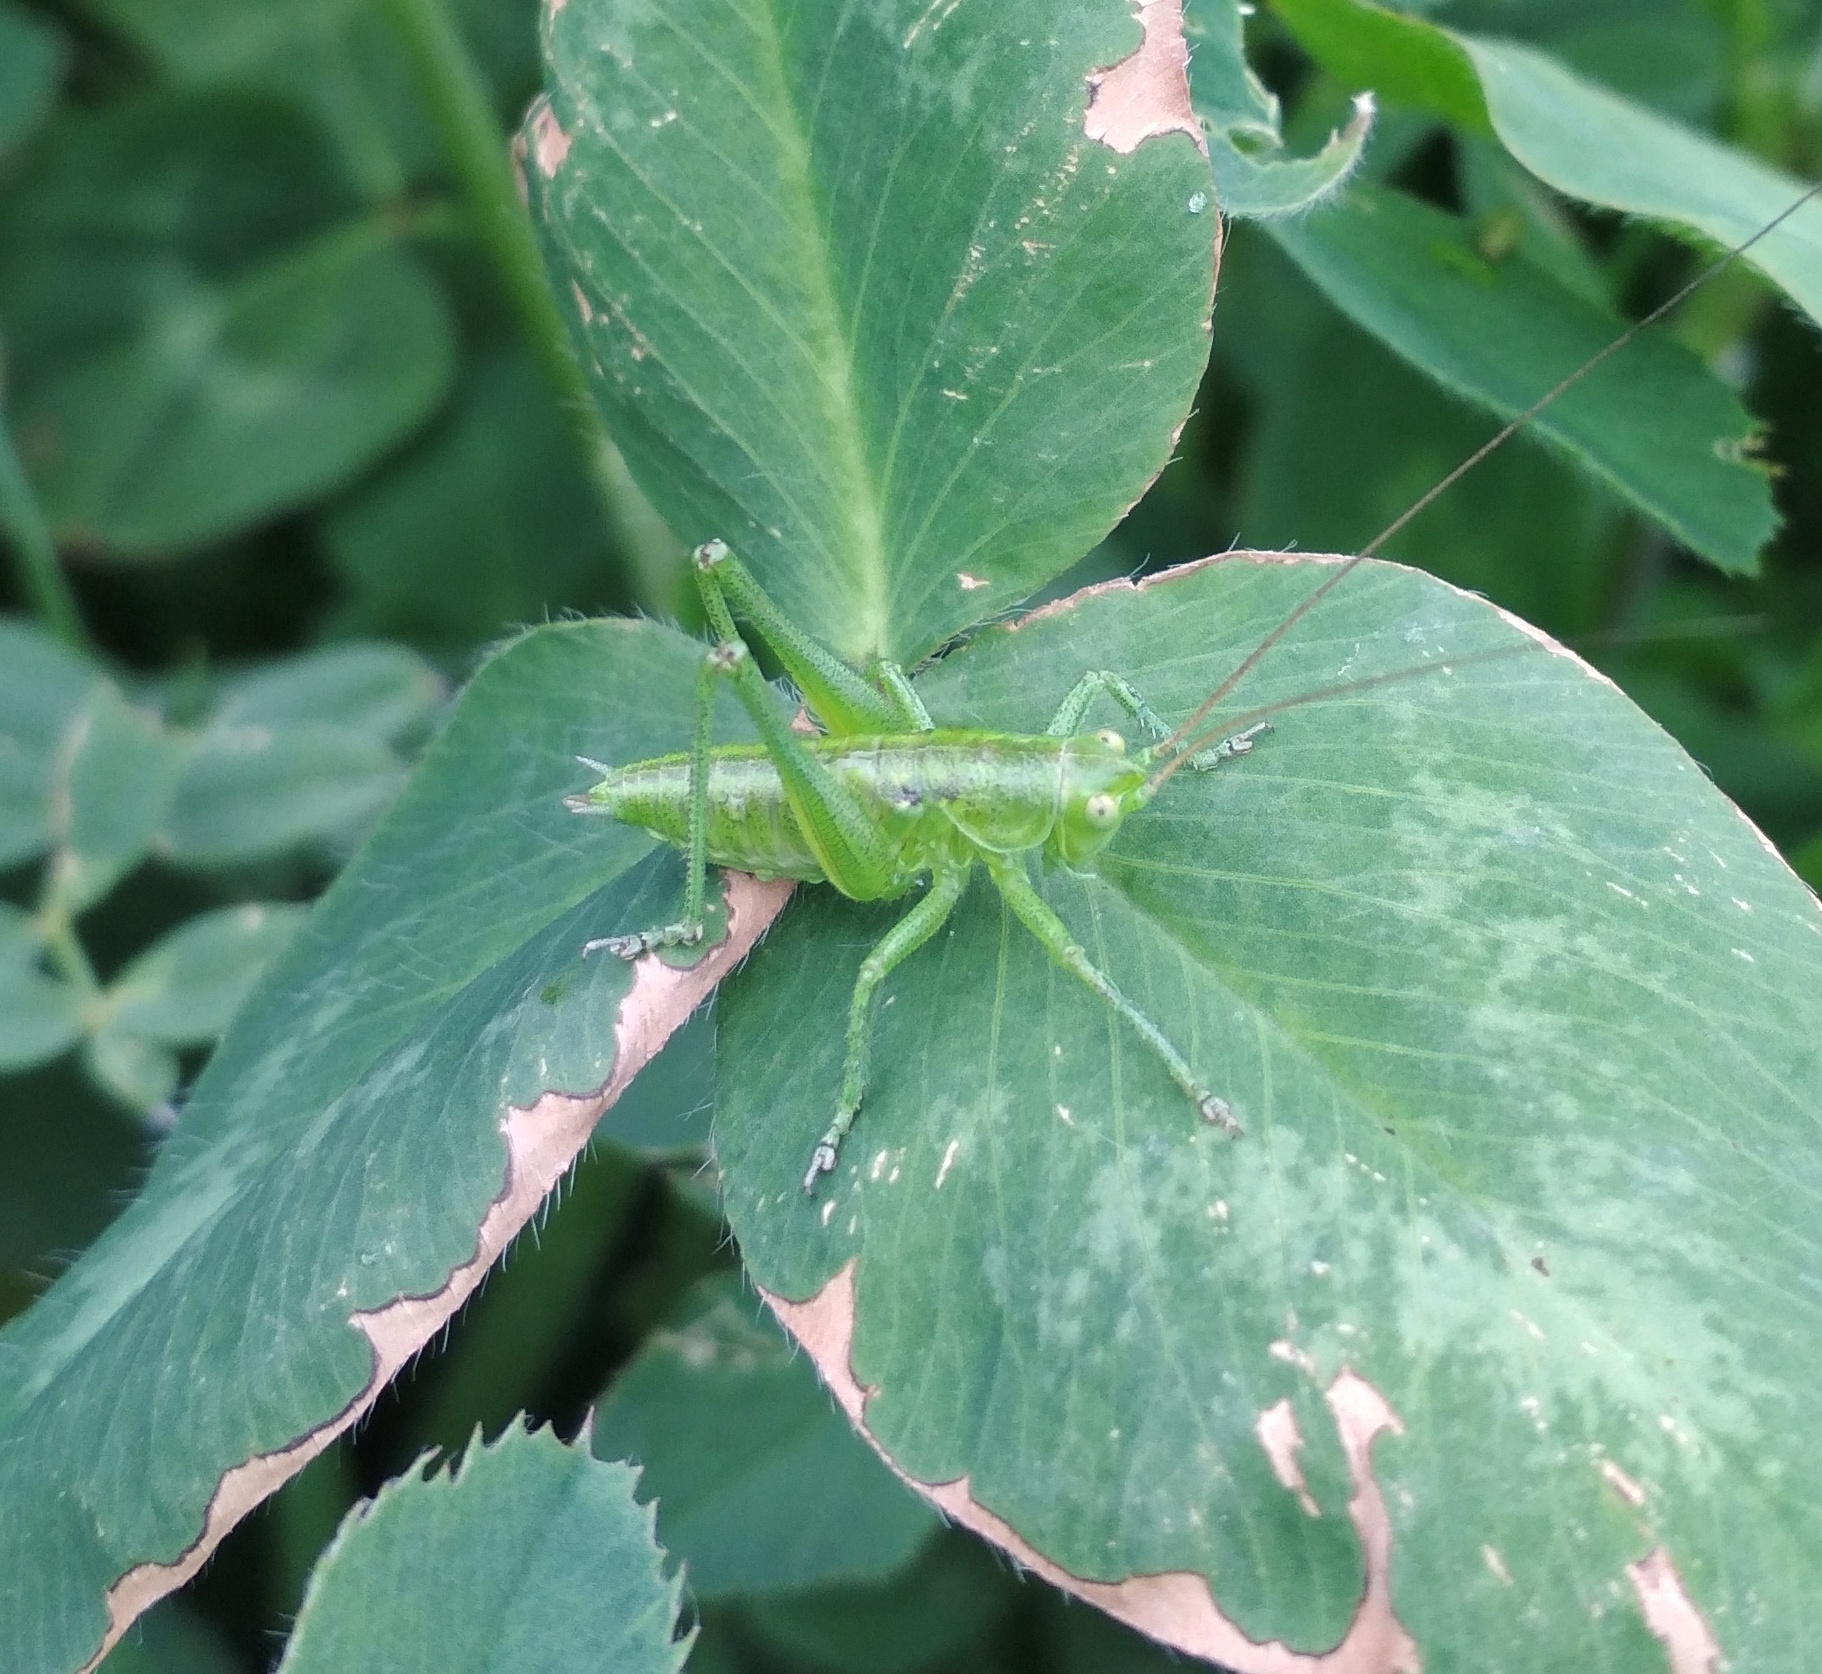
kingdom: Animalia
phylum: Arthropoda
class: Insecta
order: Orthoptera
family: Tettigoniidae
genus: Tettigonia
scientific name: Tettigonia viridissima
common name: Great green bush-cricket
